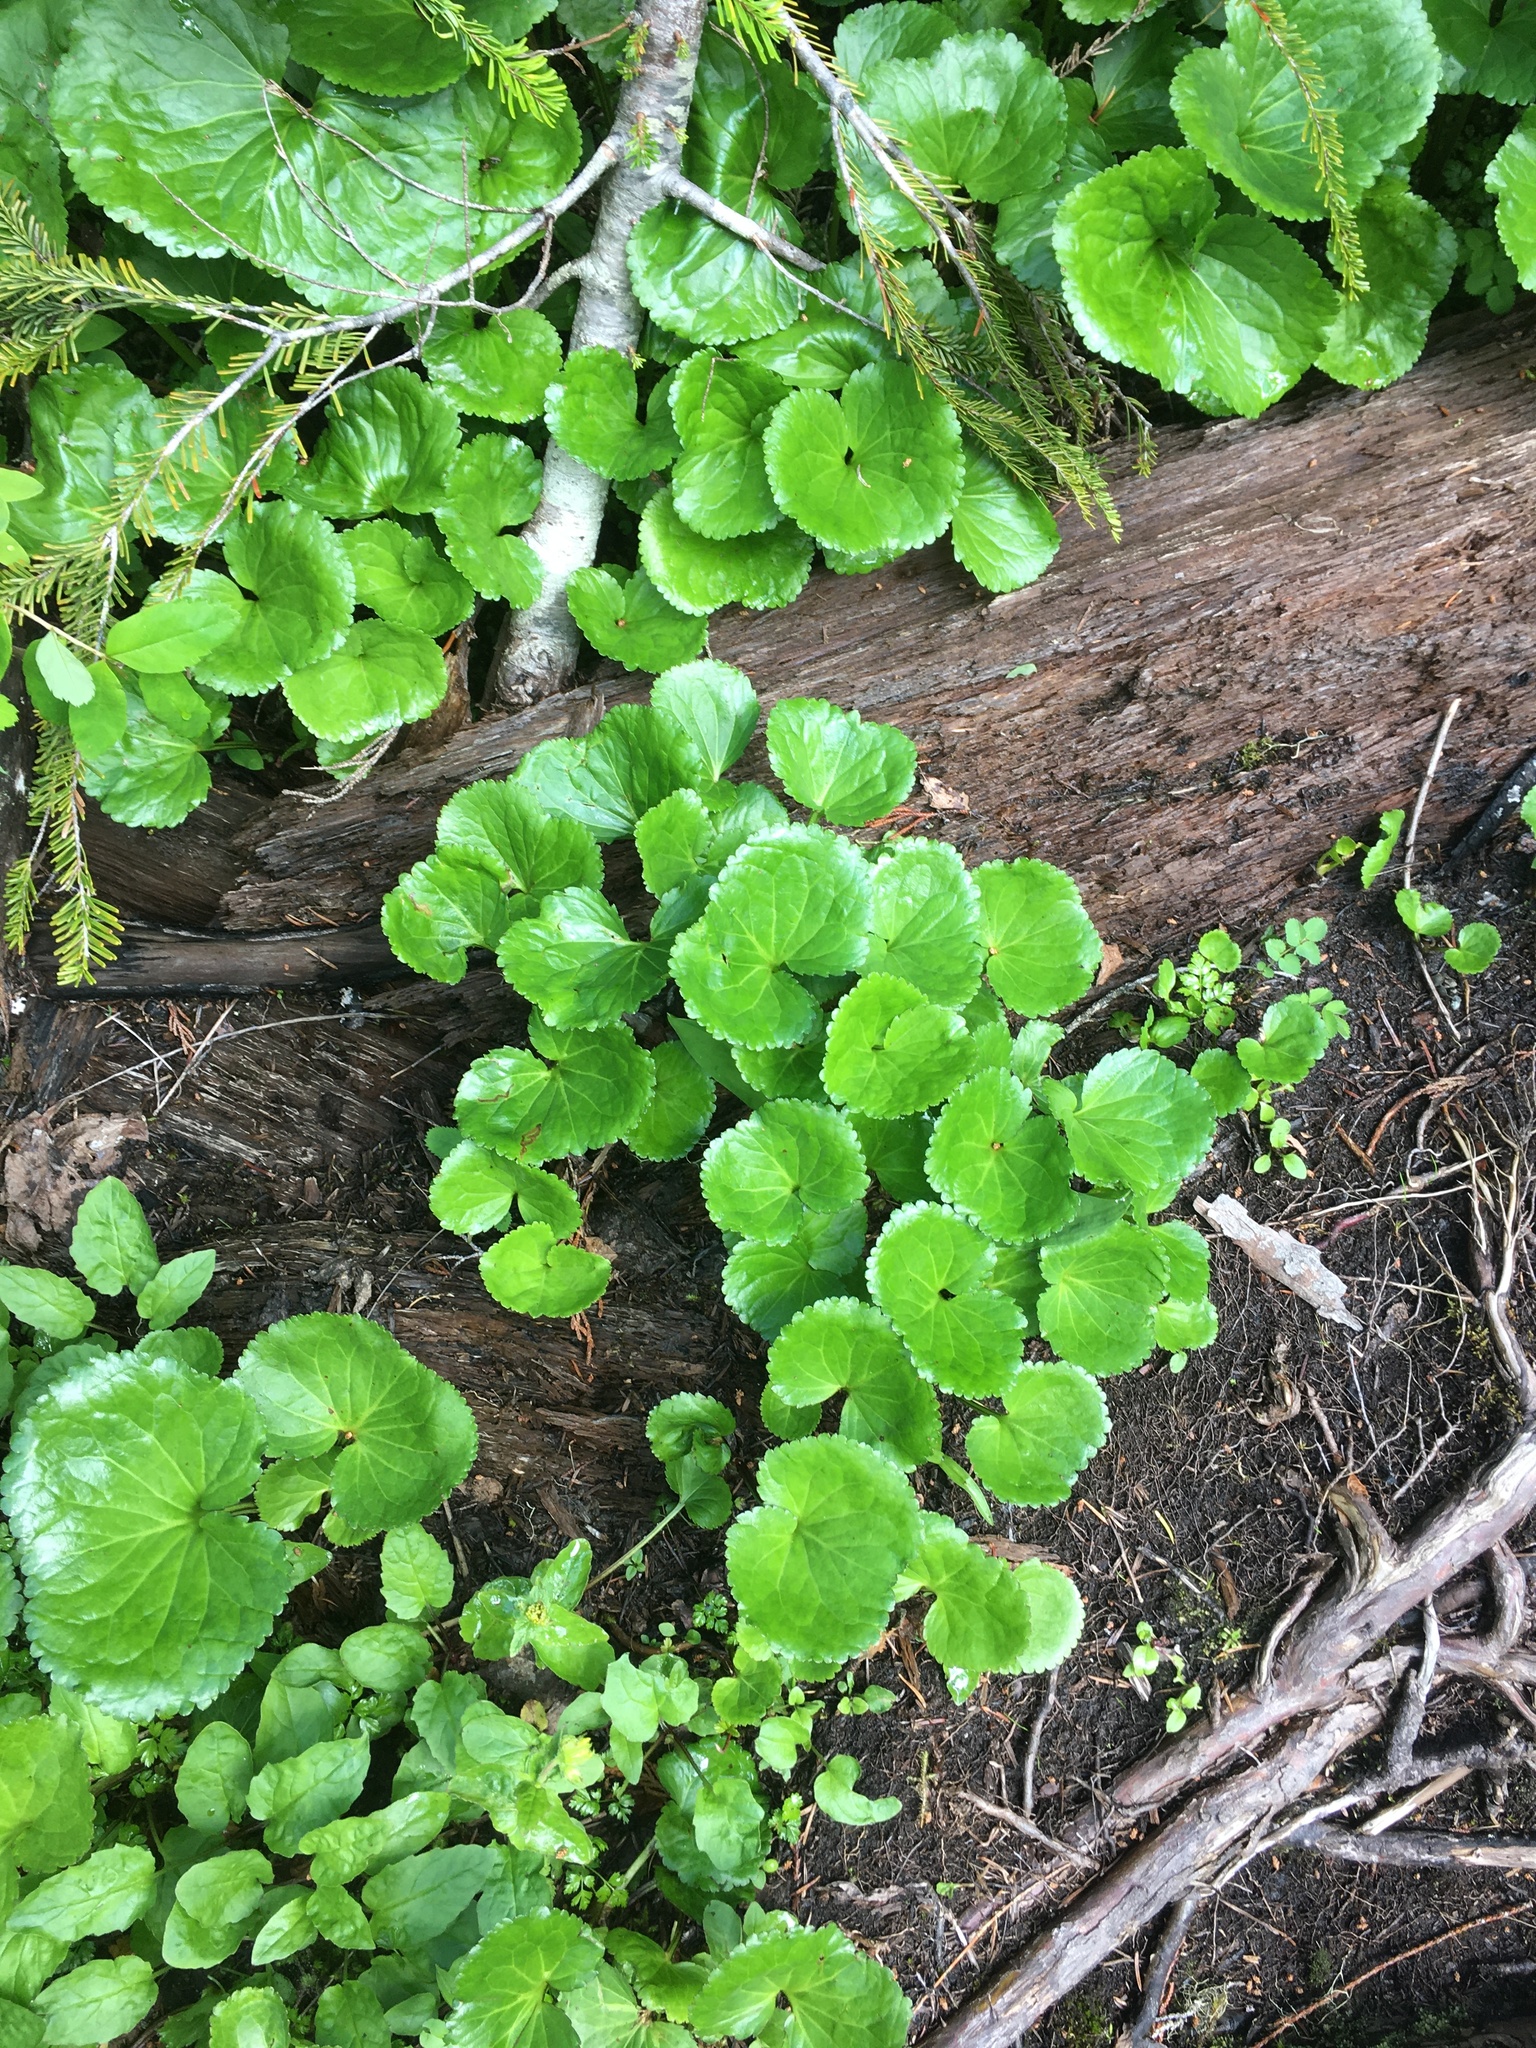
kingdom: Plantae
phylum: Tracheophyta
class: Magnoliopsida
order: Asterales
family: Menyanthaceae
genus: Nephrophyllidium
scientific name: Nephrophyllidium crista-galli
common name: Deer-cabbage
